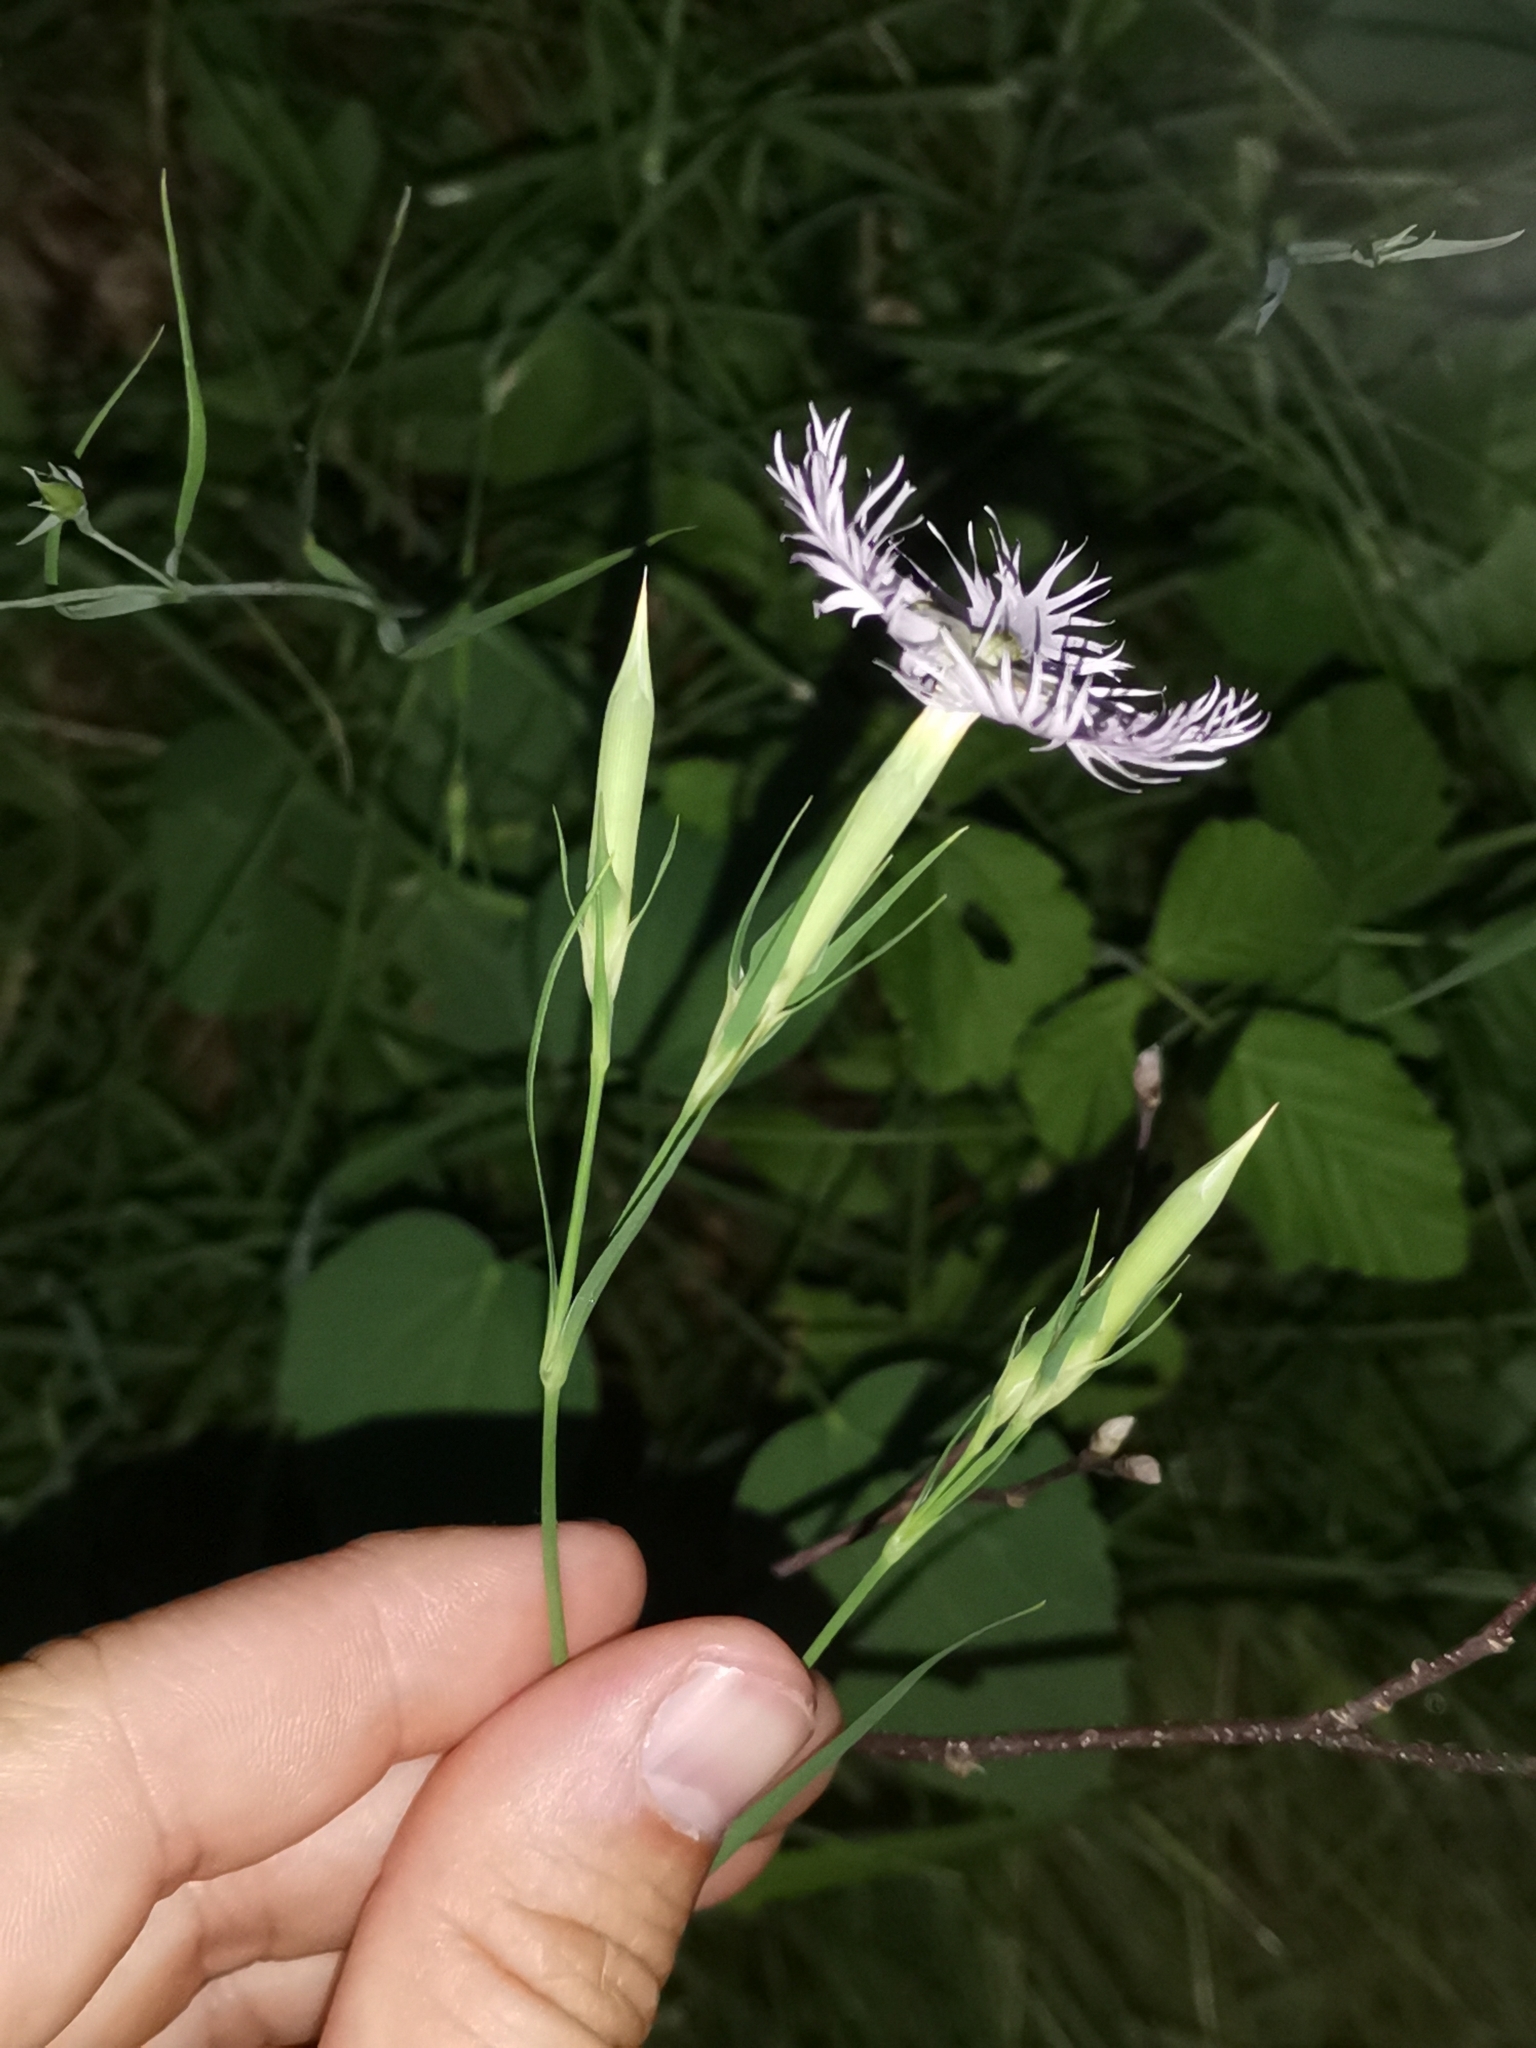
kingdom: Plantae
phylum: Tracheophyta
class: Magnoliopsida
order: Caryophyllales
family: Caryophyllaceae
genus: Dianthus
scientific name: Dianthus hyssopifolius
